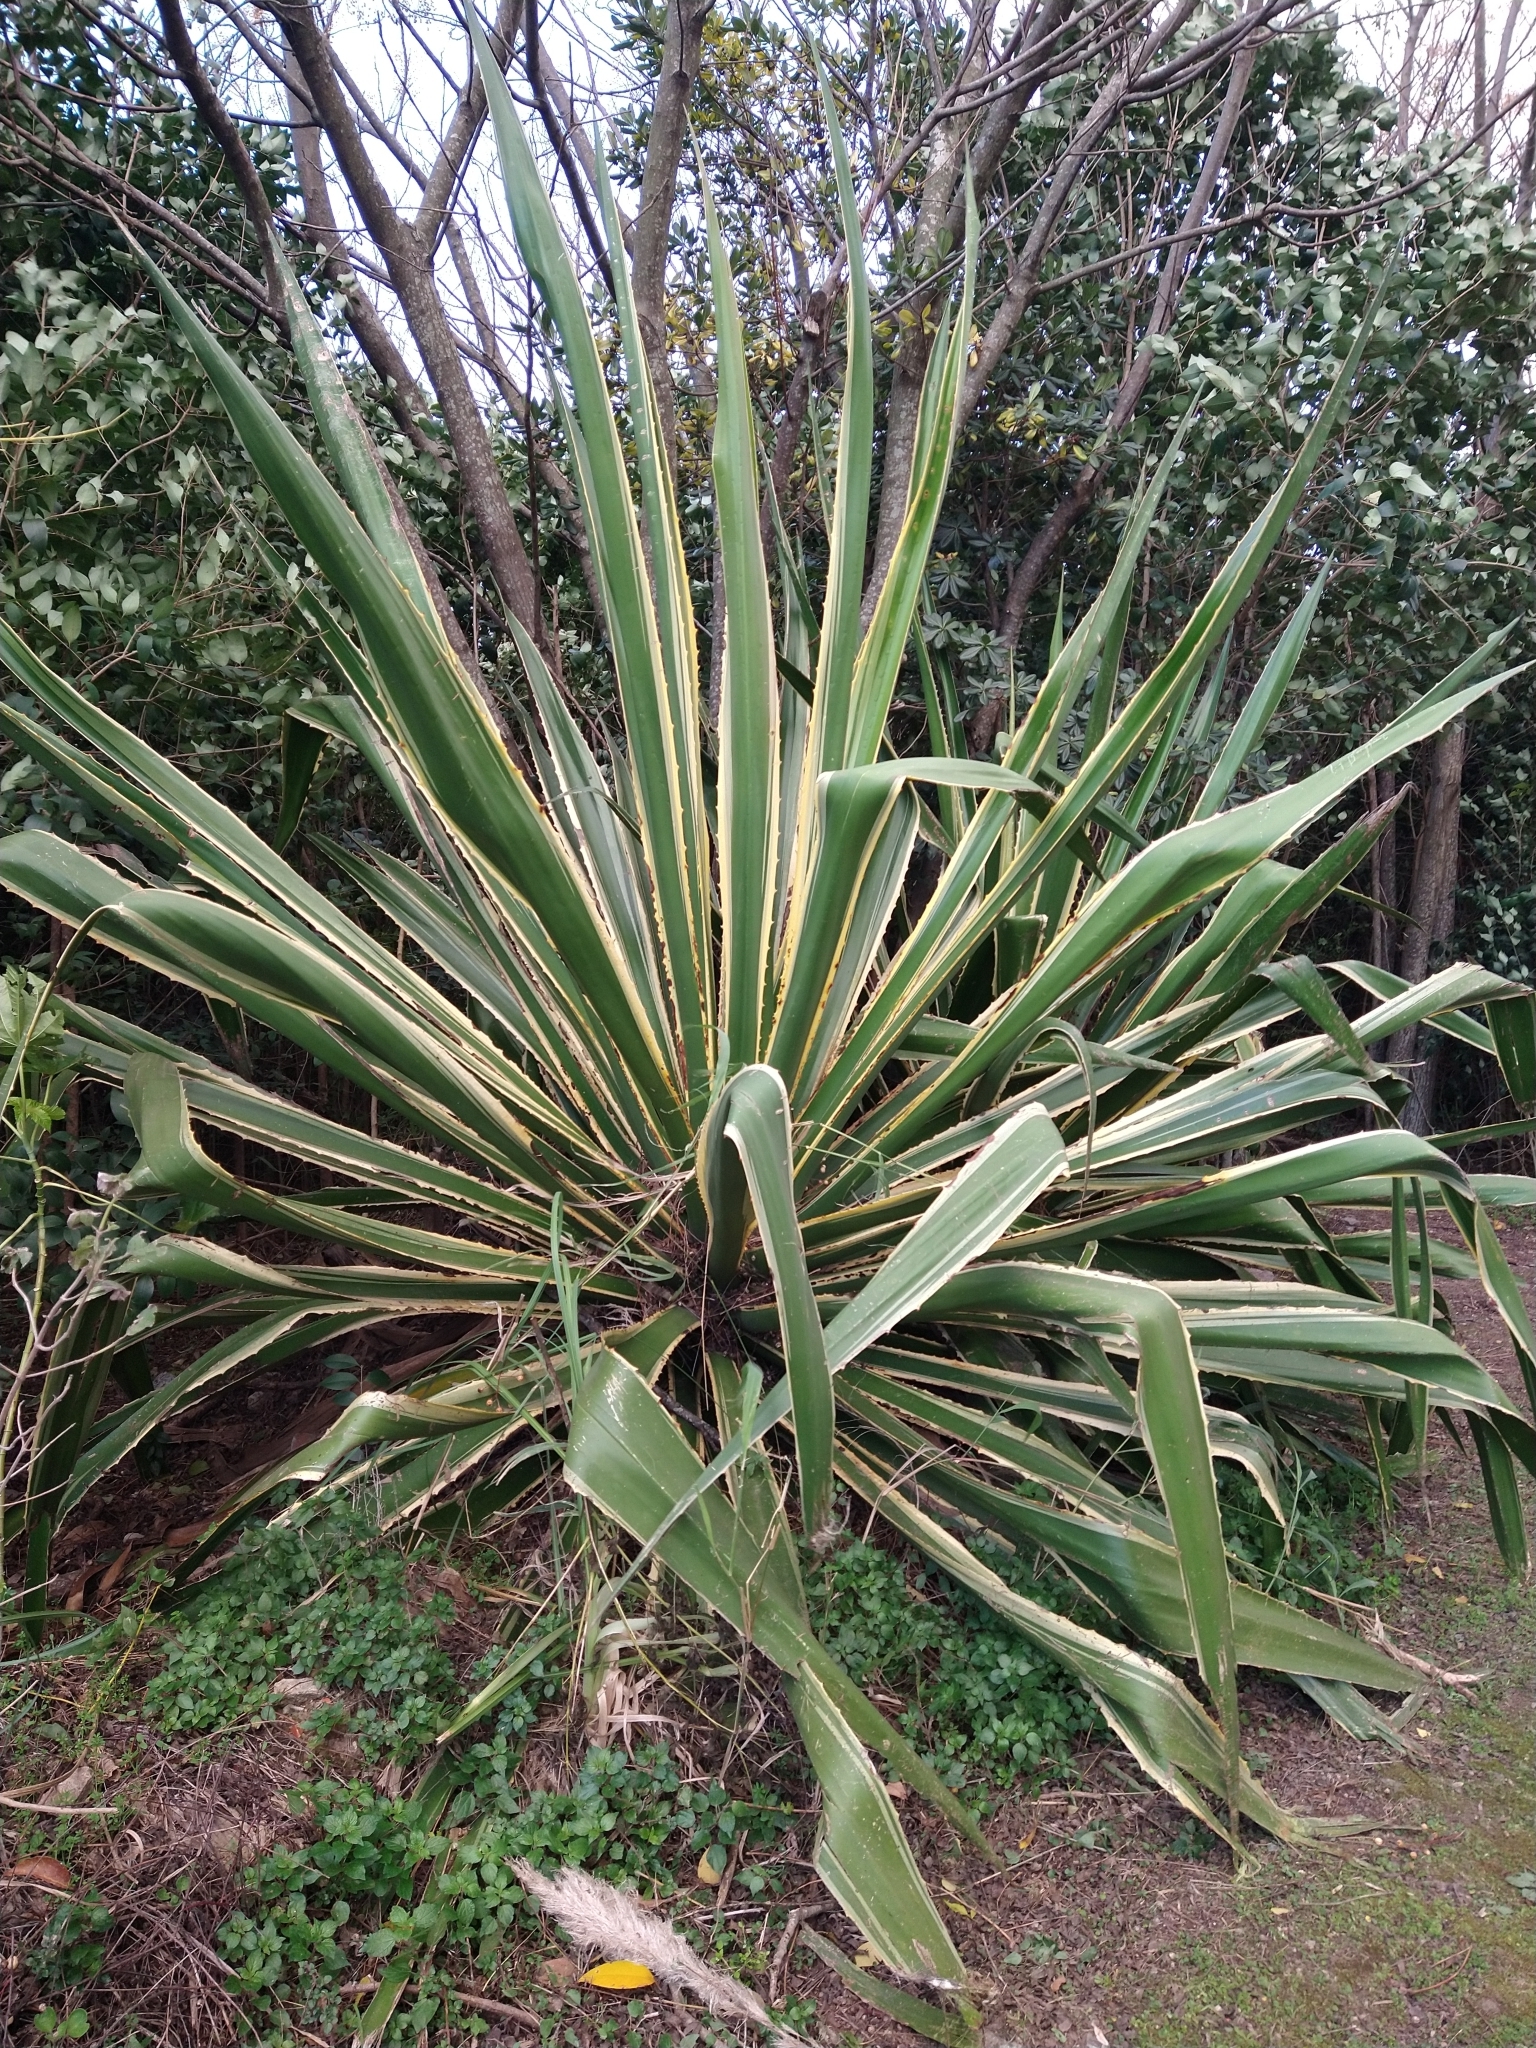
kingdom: Plantae
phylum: Tracheophyta
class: Liliopsida
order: Asparagales
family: Asparagaceae
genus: Agave
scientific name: Agave angustifolia
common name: Mescal agave
